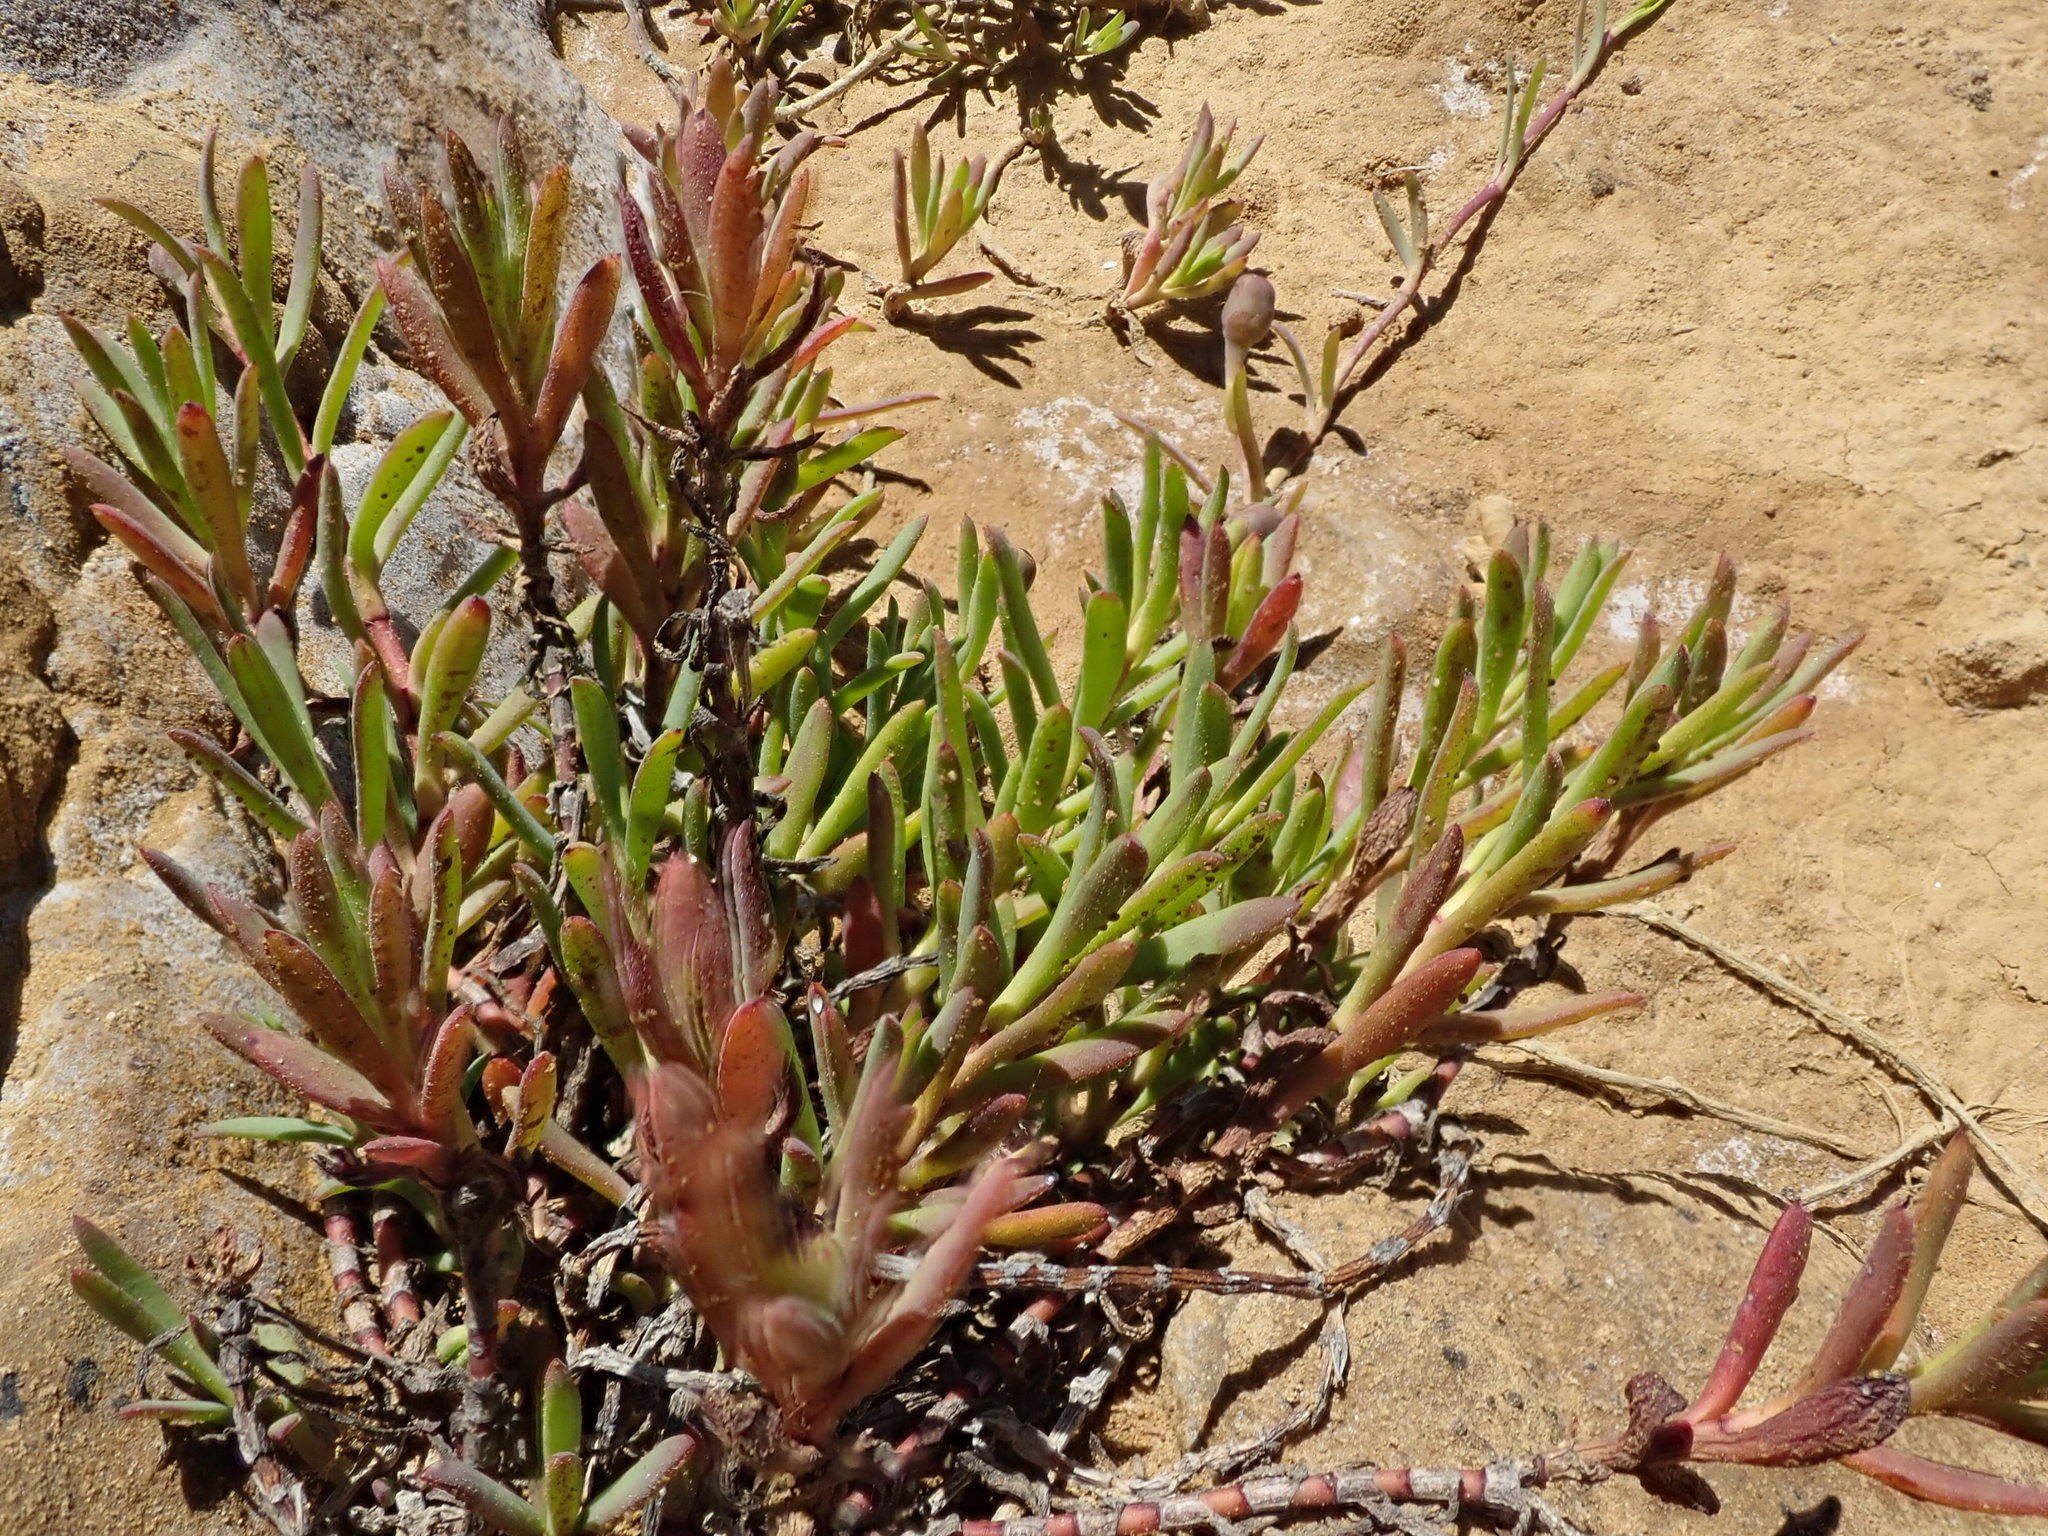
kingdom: Plantae
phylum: Tracheophyta
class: Magnoliopsida
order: Asterales
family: Asteraceae
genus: Jaumea
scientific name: Jaumea carnosa
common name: Fleshy jaumea
